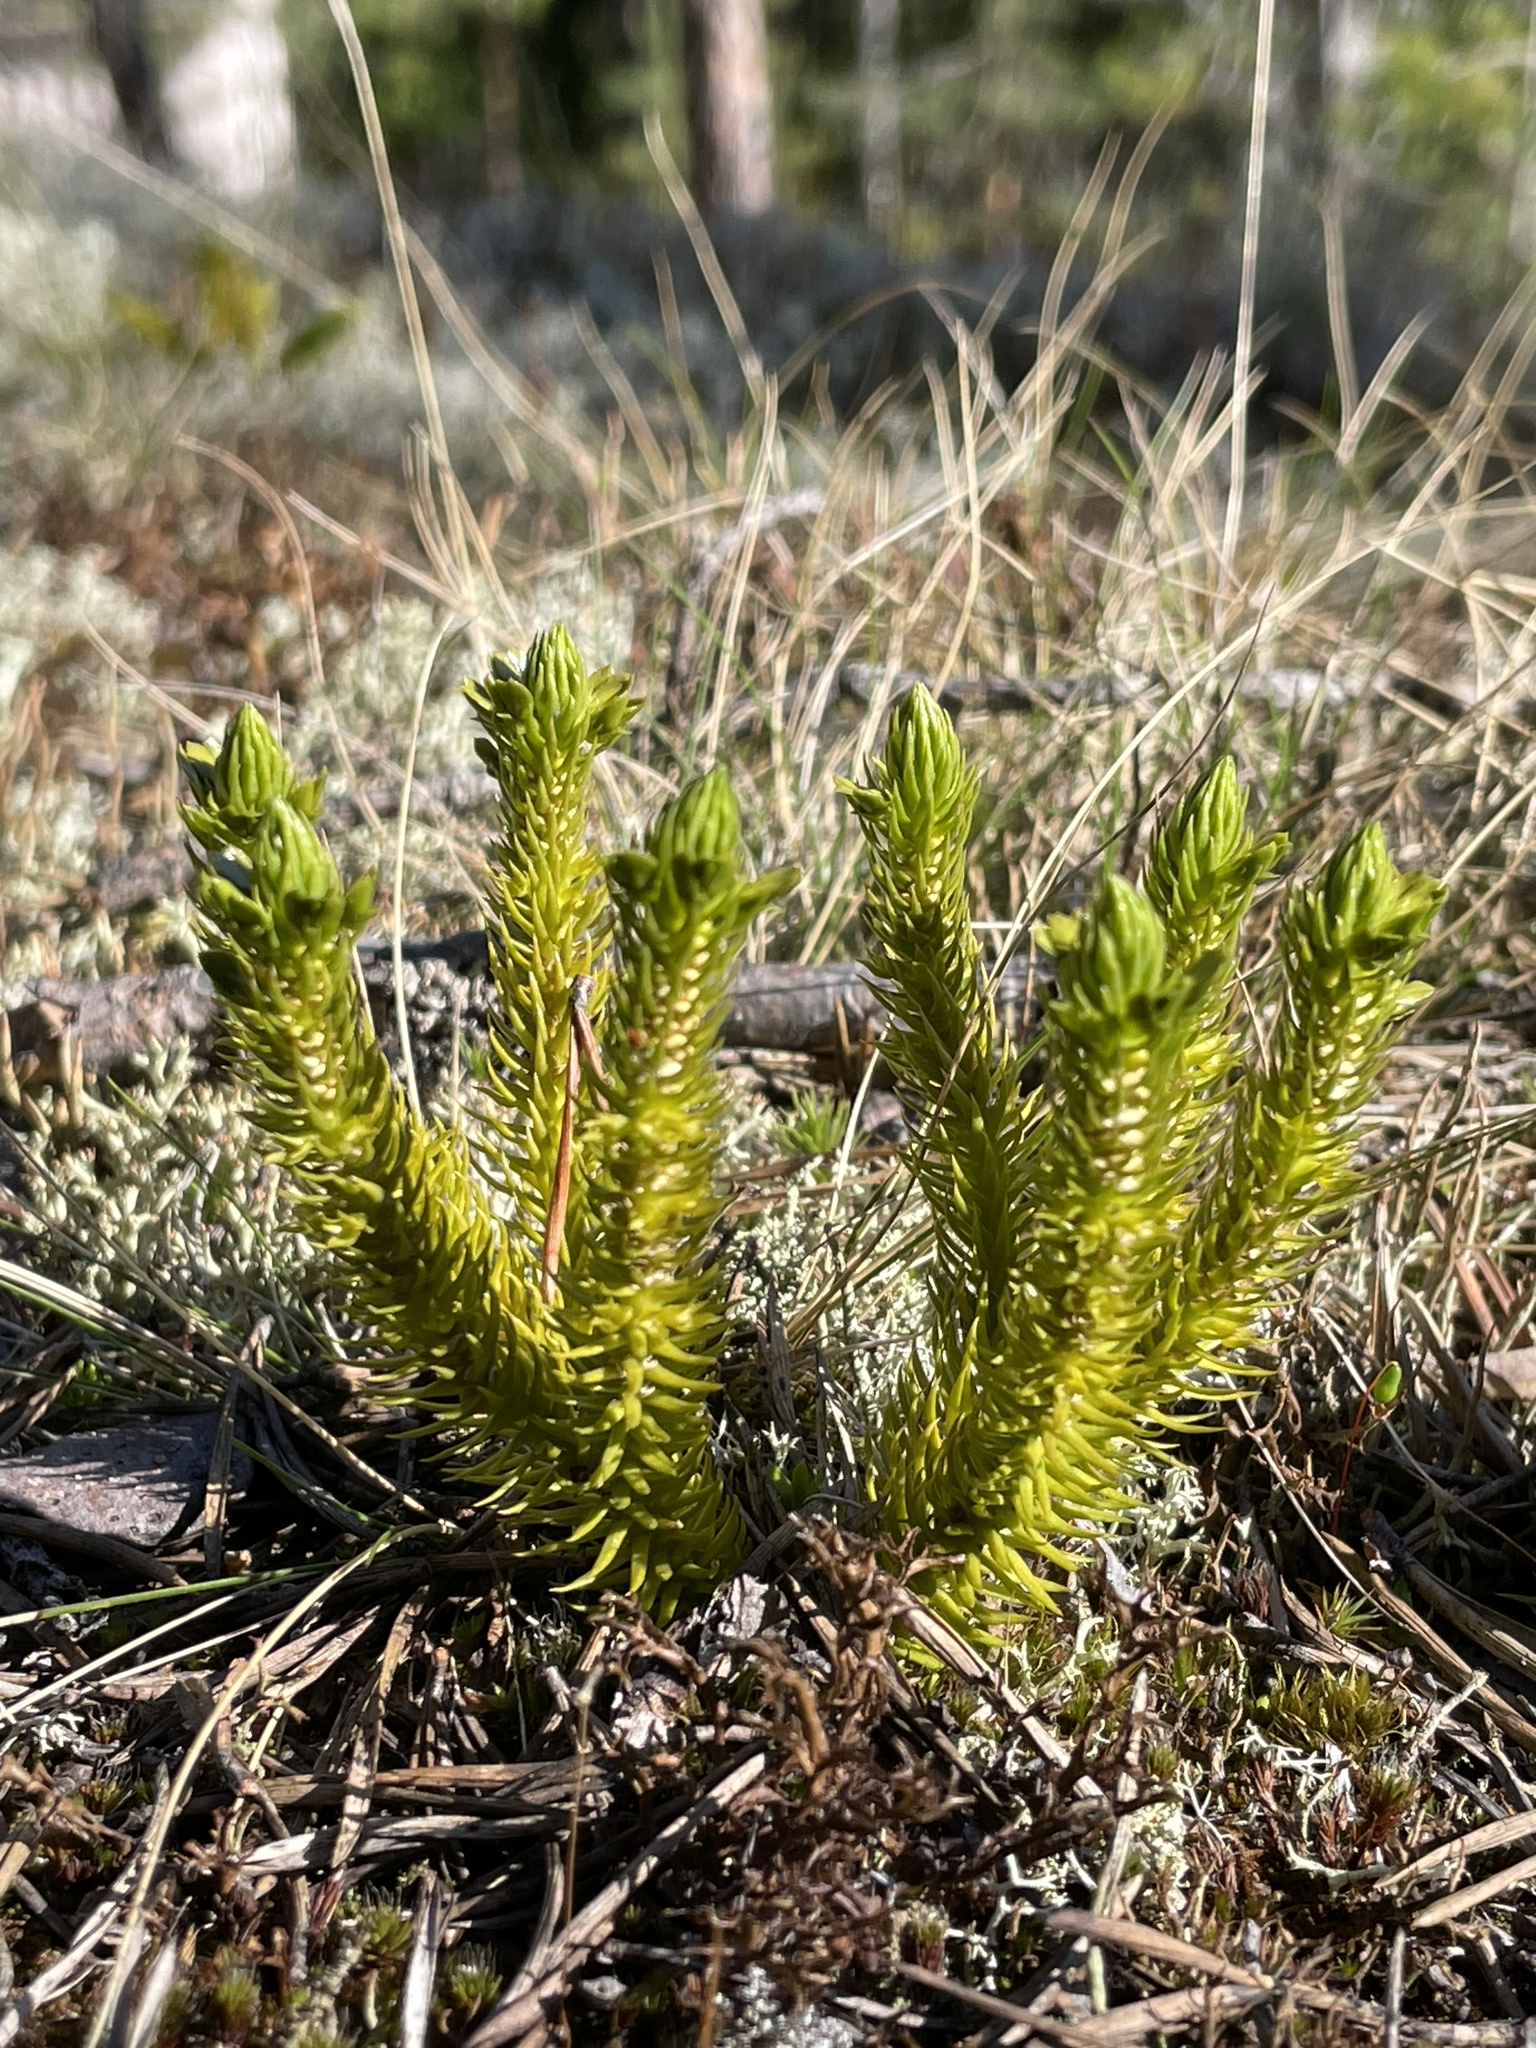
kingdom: Plantae
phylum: Tracheophyta
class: Lycopodiopsida
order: Lycopodiales
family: Lycopodiaceae
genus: Huperzia
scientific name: Huperzia selago
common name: Northern firmoss
